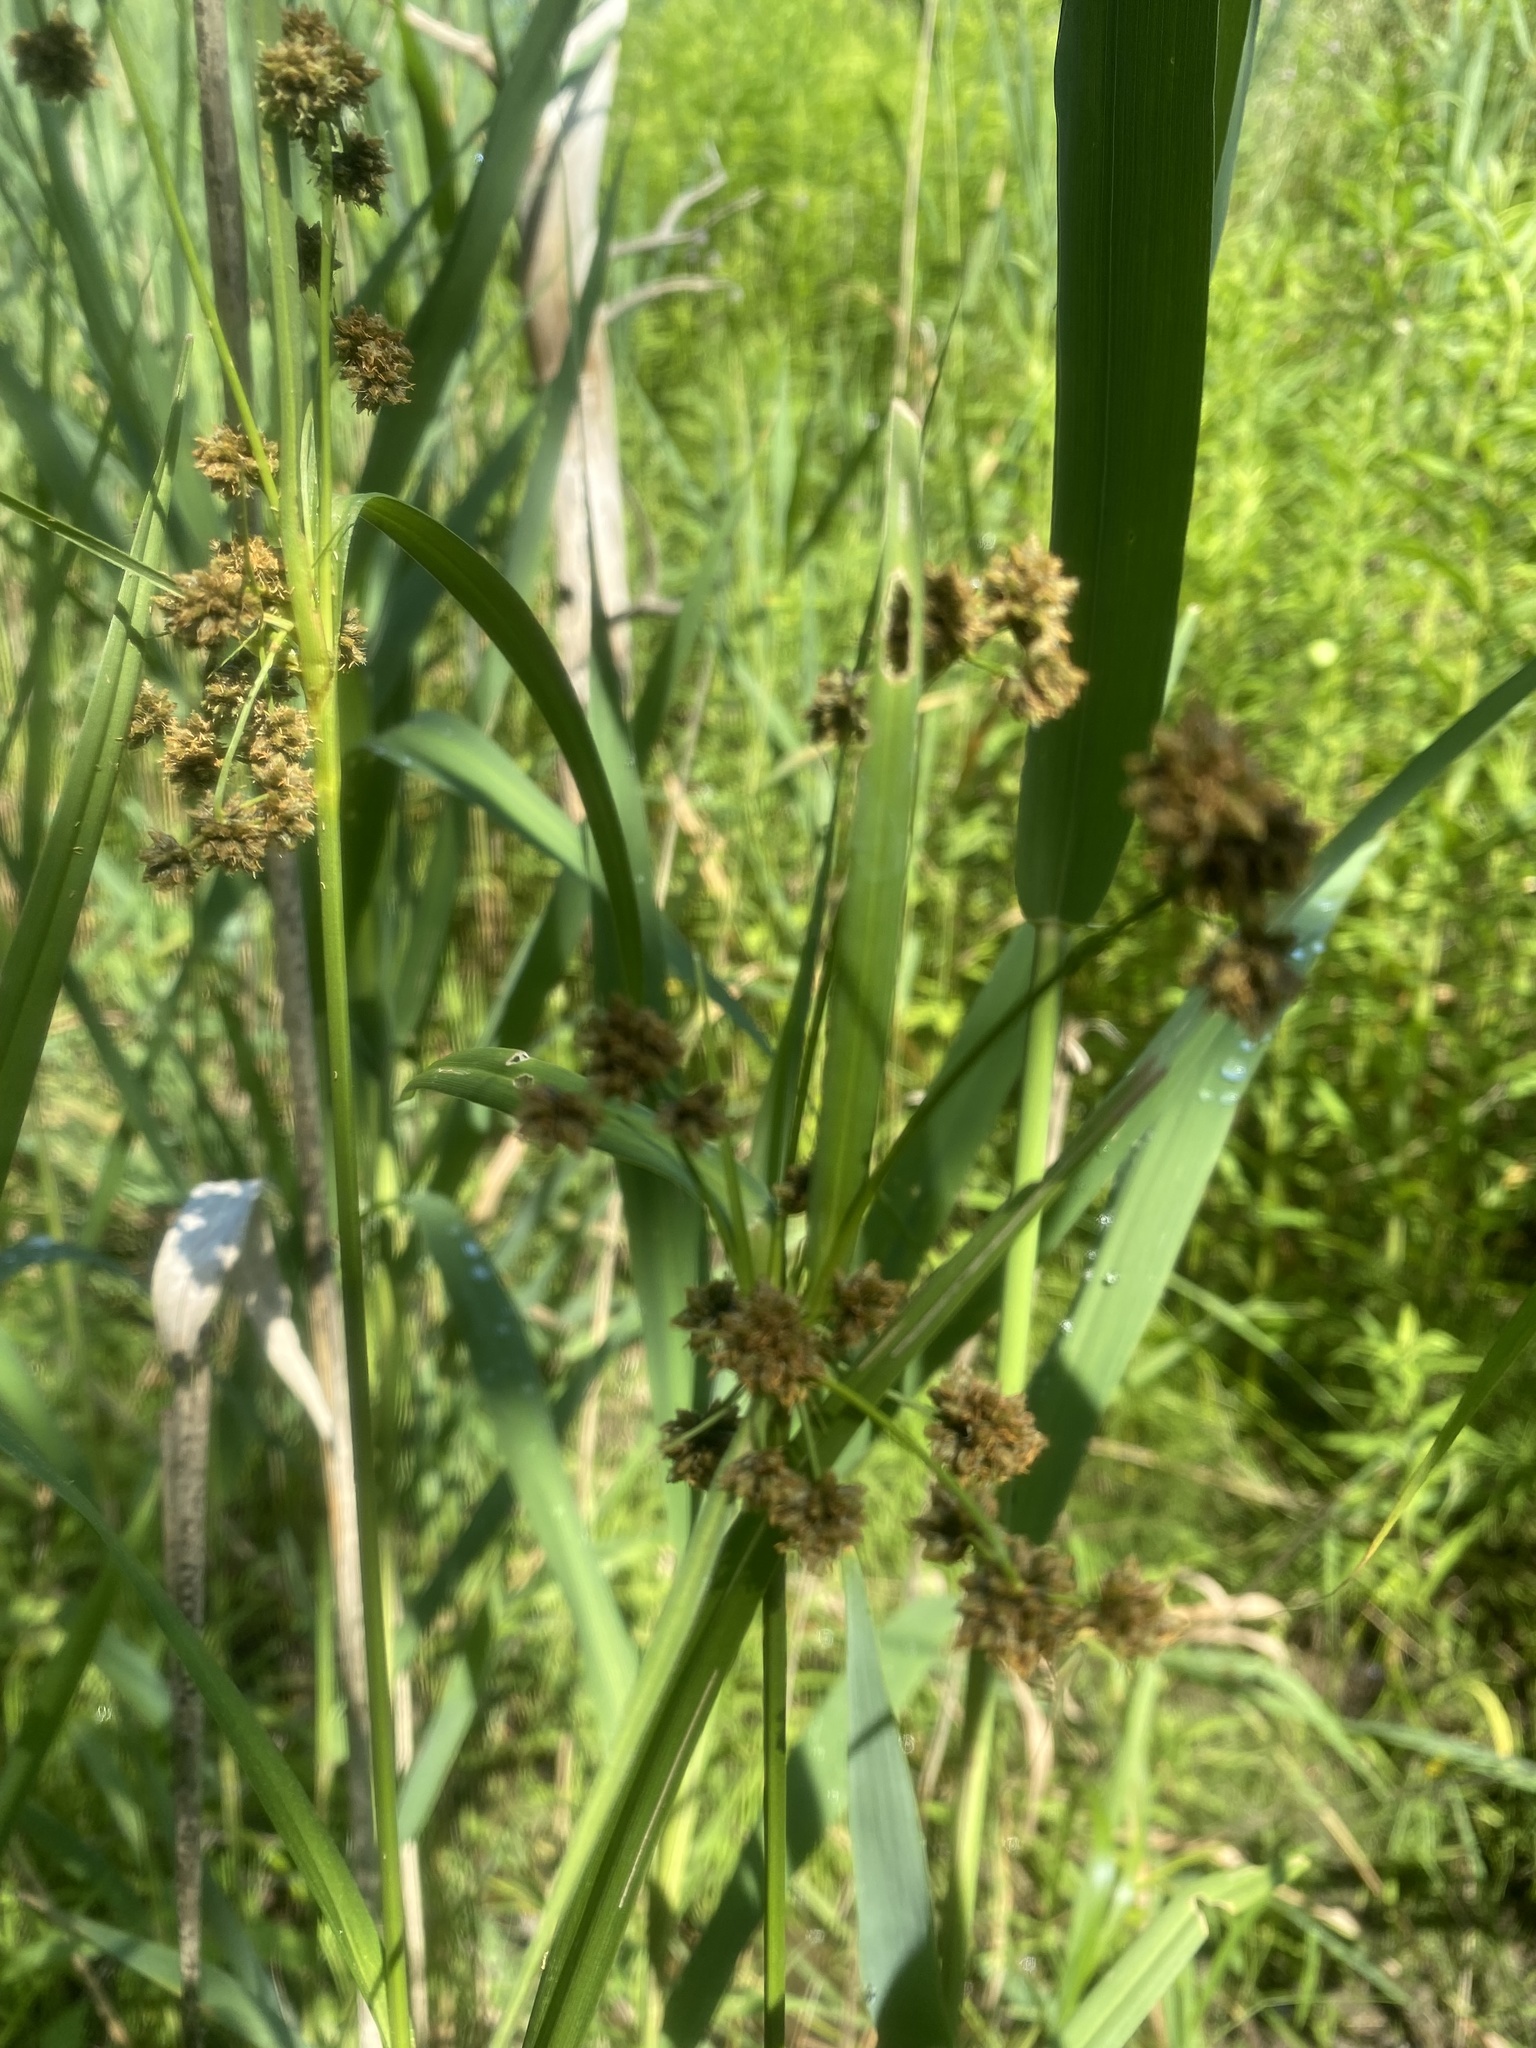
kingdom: Plantae
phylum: Tracheophyta
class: Liliopsida
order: Poales
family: Cyperaceae
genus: Scirpus
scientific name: Scirpus atrovirens
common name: Black bulrush
